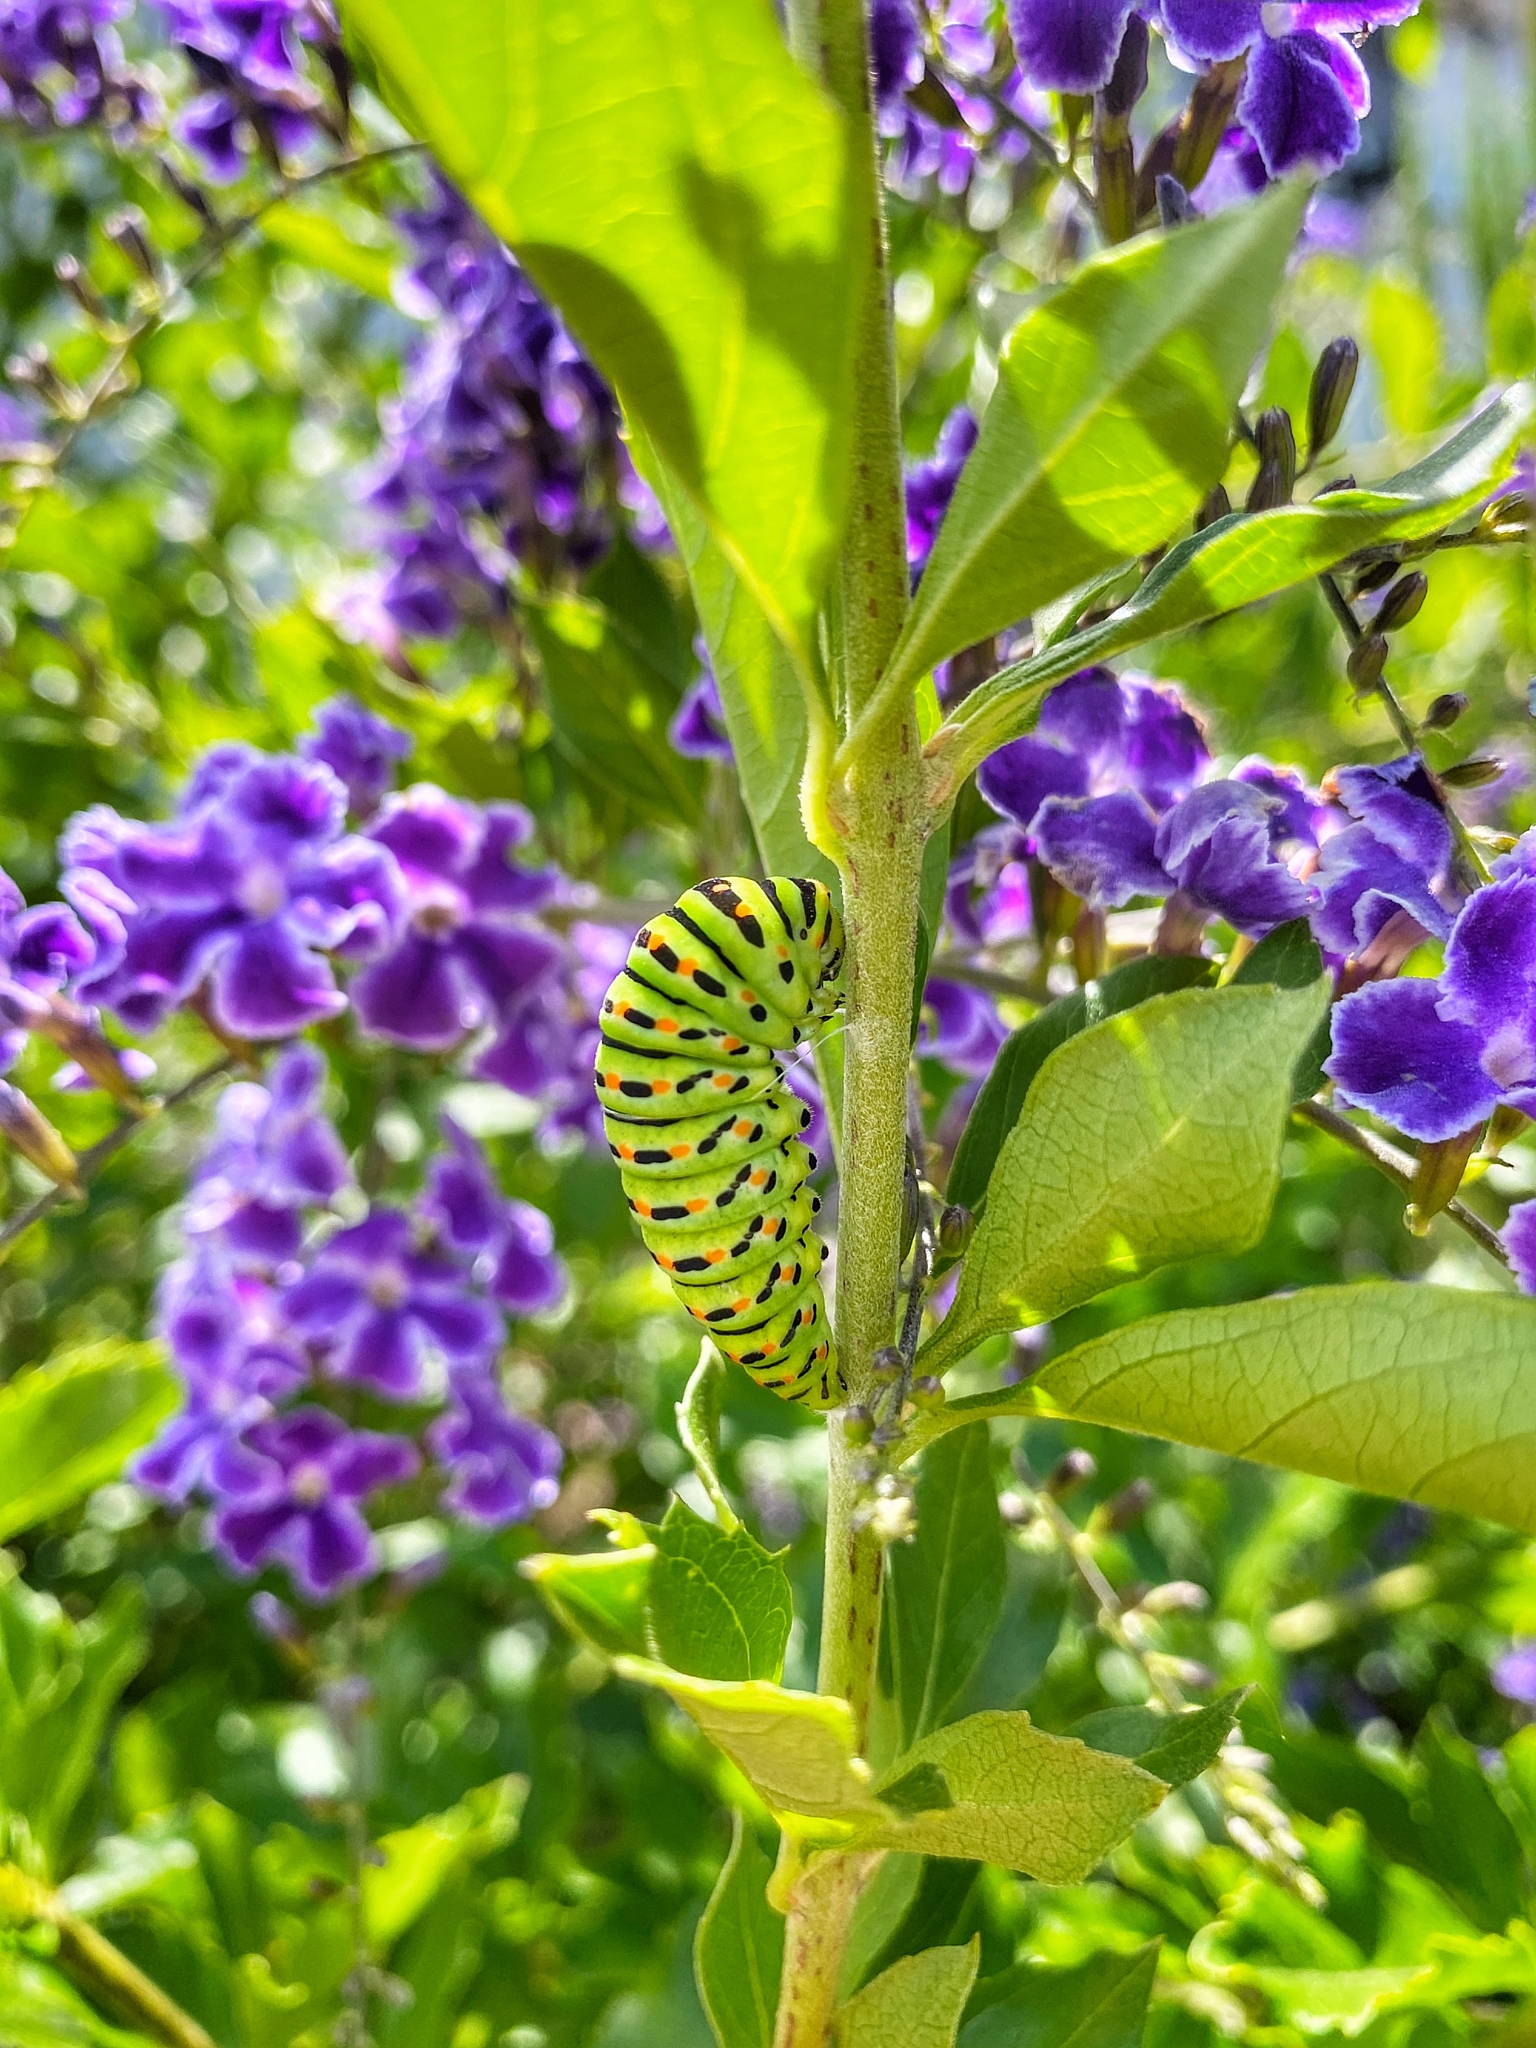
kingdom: Animalia
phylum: Arthropoda
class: Insecta
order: Lepidoptera
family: Papilionidae
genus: Papilio
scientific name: Papilio machaon
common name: Swallowtail
